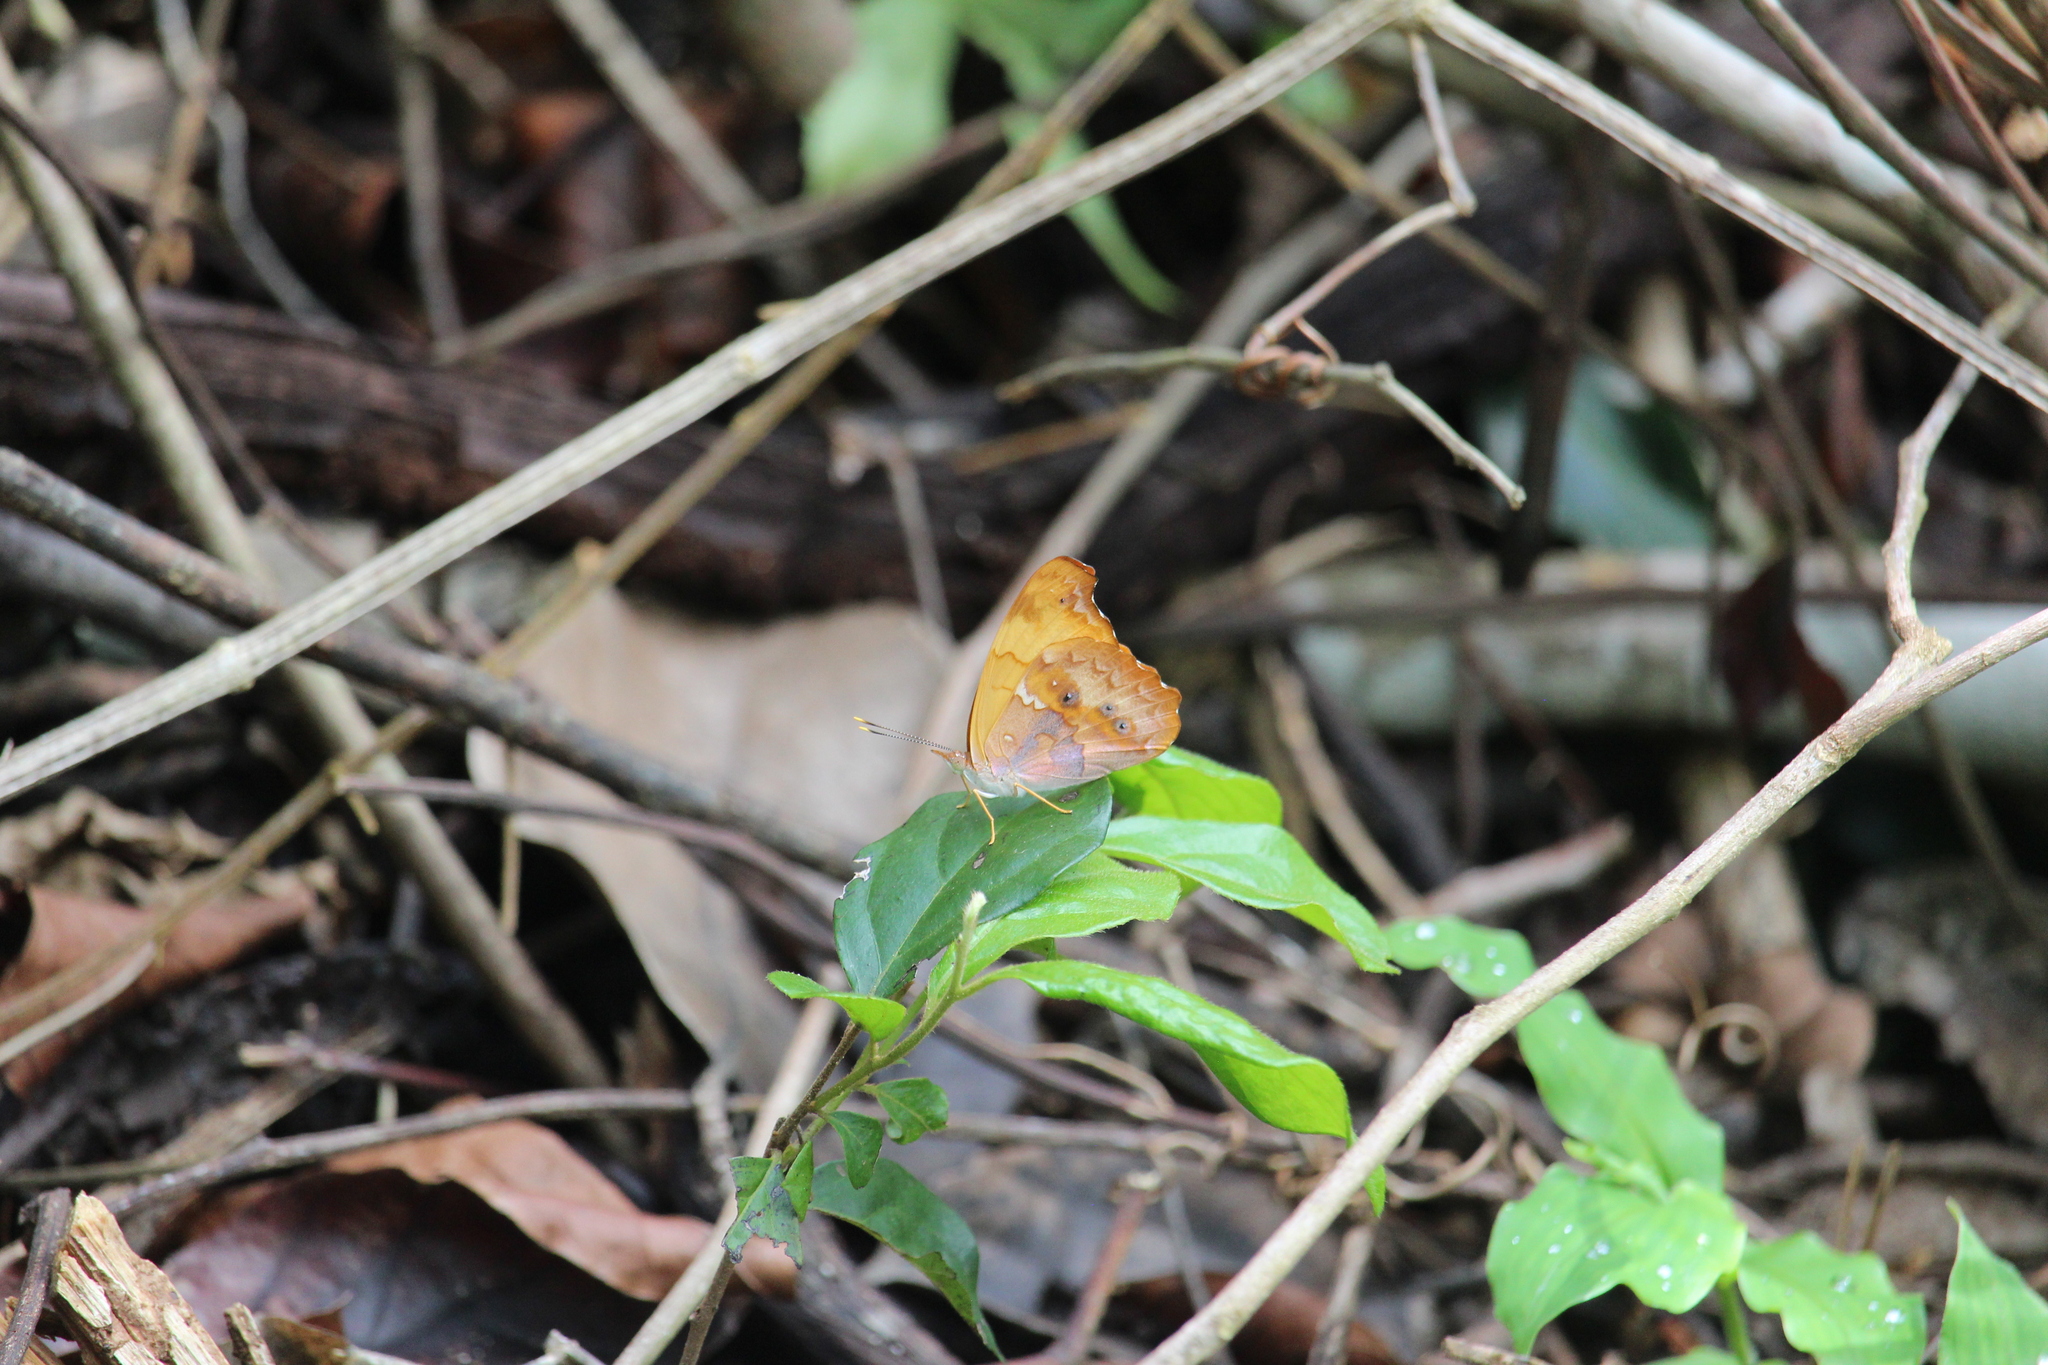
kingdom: Animalia
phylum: Arthropoda
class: Insecta
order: Lepidoptera
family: Nymphalidae
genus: Temenis
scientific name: Temenis laothoe
